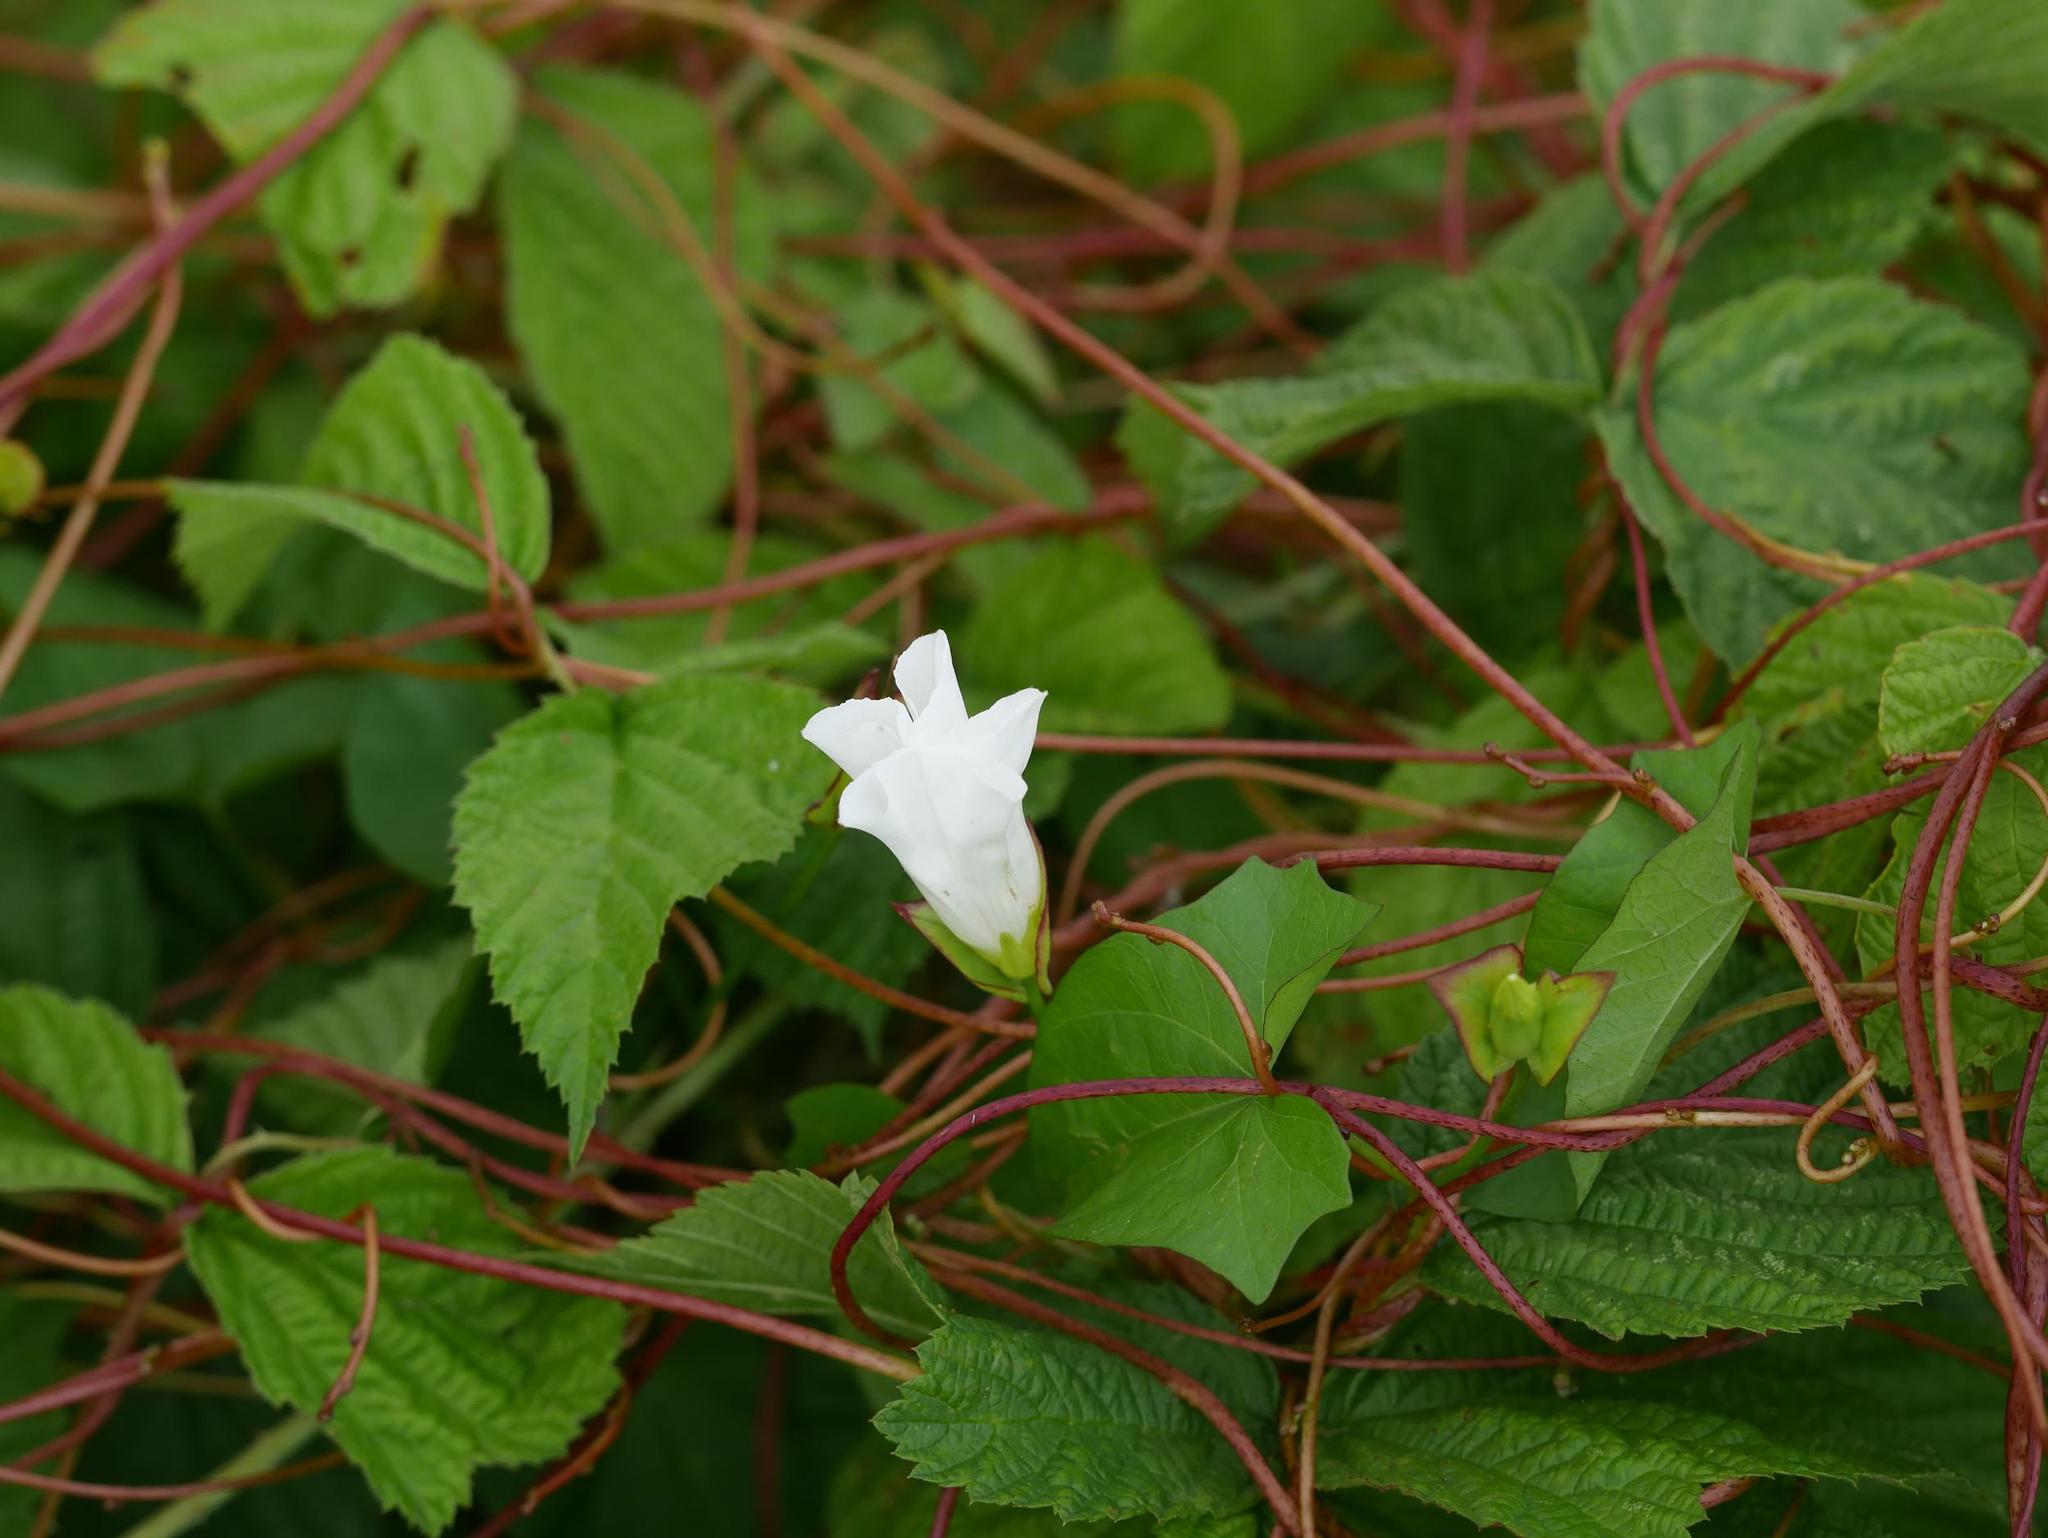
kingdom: Plantae
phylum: Tracheophyta
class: Magnoliopsida
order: Solanales
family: Convolvulaceae
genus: Calystegia
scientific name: Calystegia sepium
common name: Hedge bindweed
